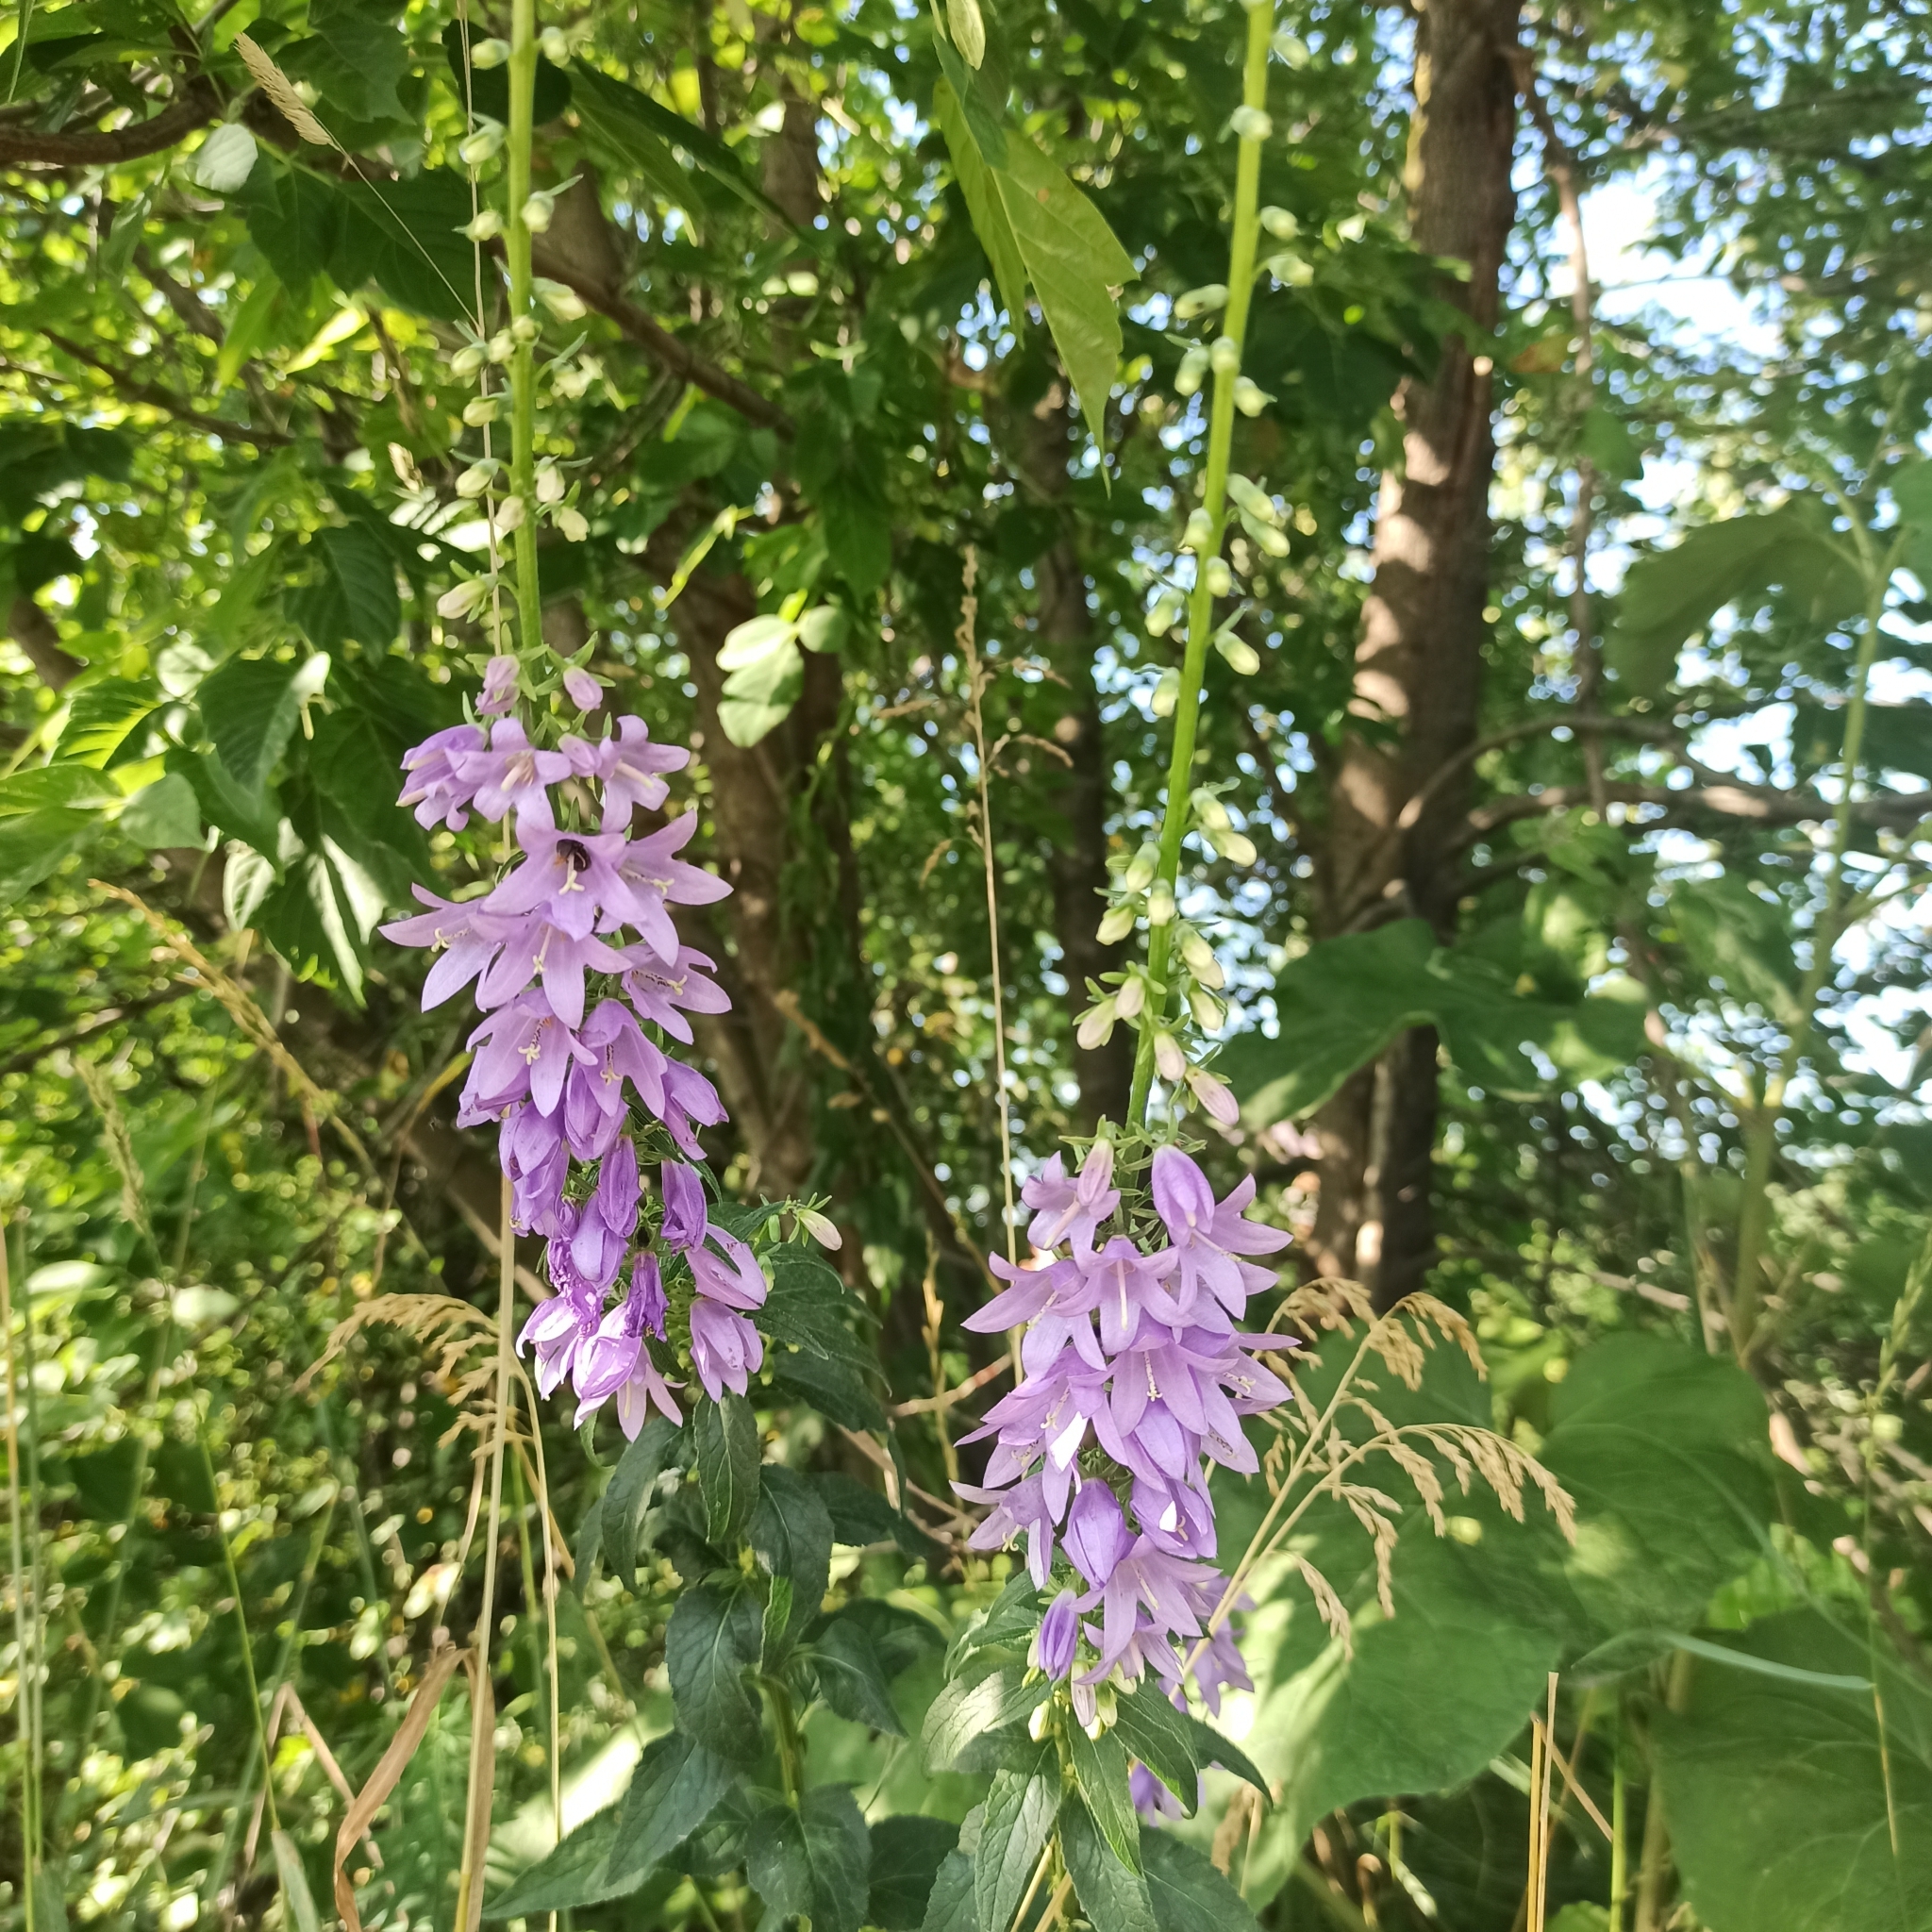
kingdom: Plantae
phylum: Tracheophyta
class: Magnoliopsida
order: Asterales
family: Campanulaceae
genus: Campanula
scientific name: Campanula rapunculoides
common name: Creeping bellflower
